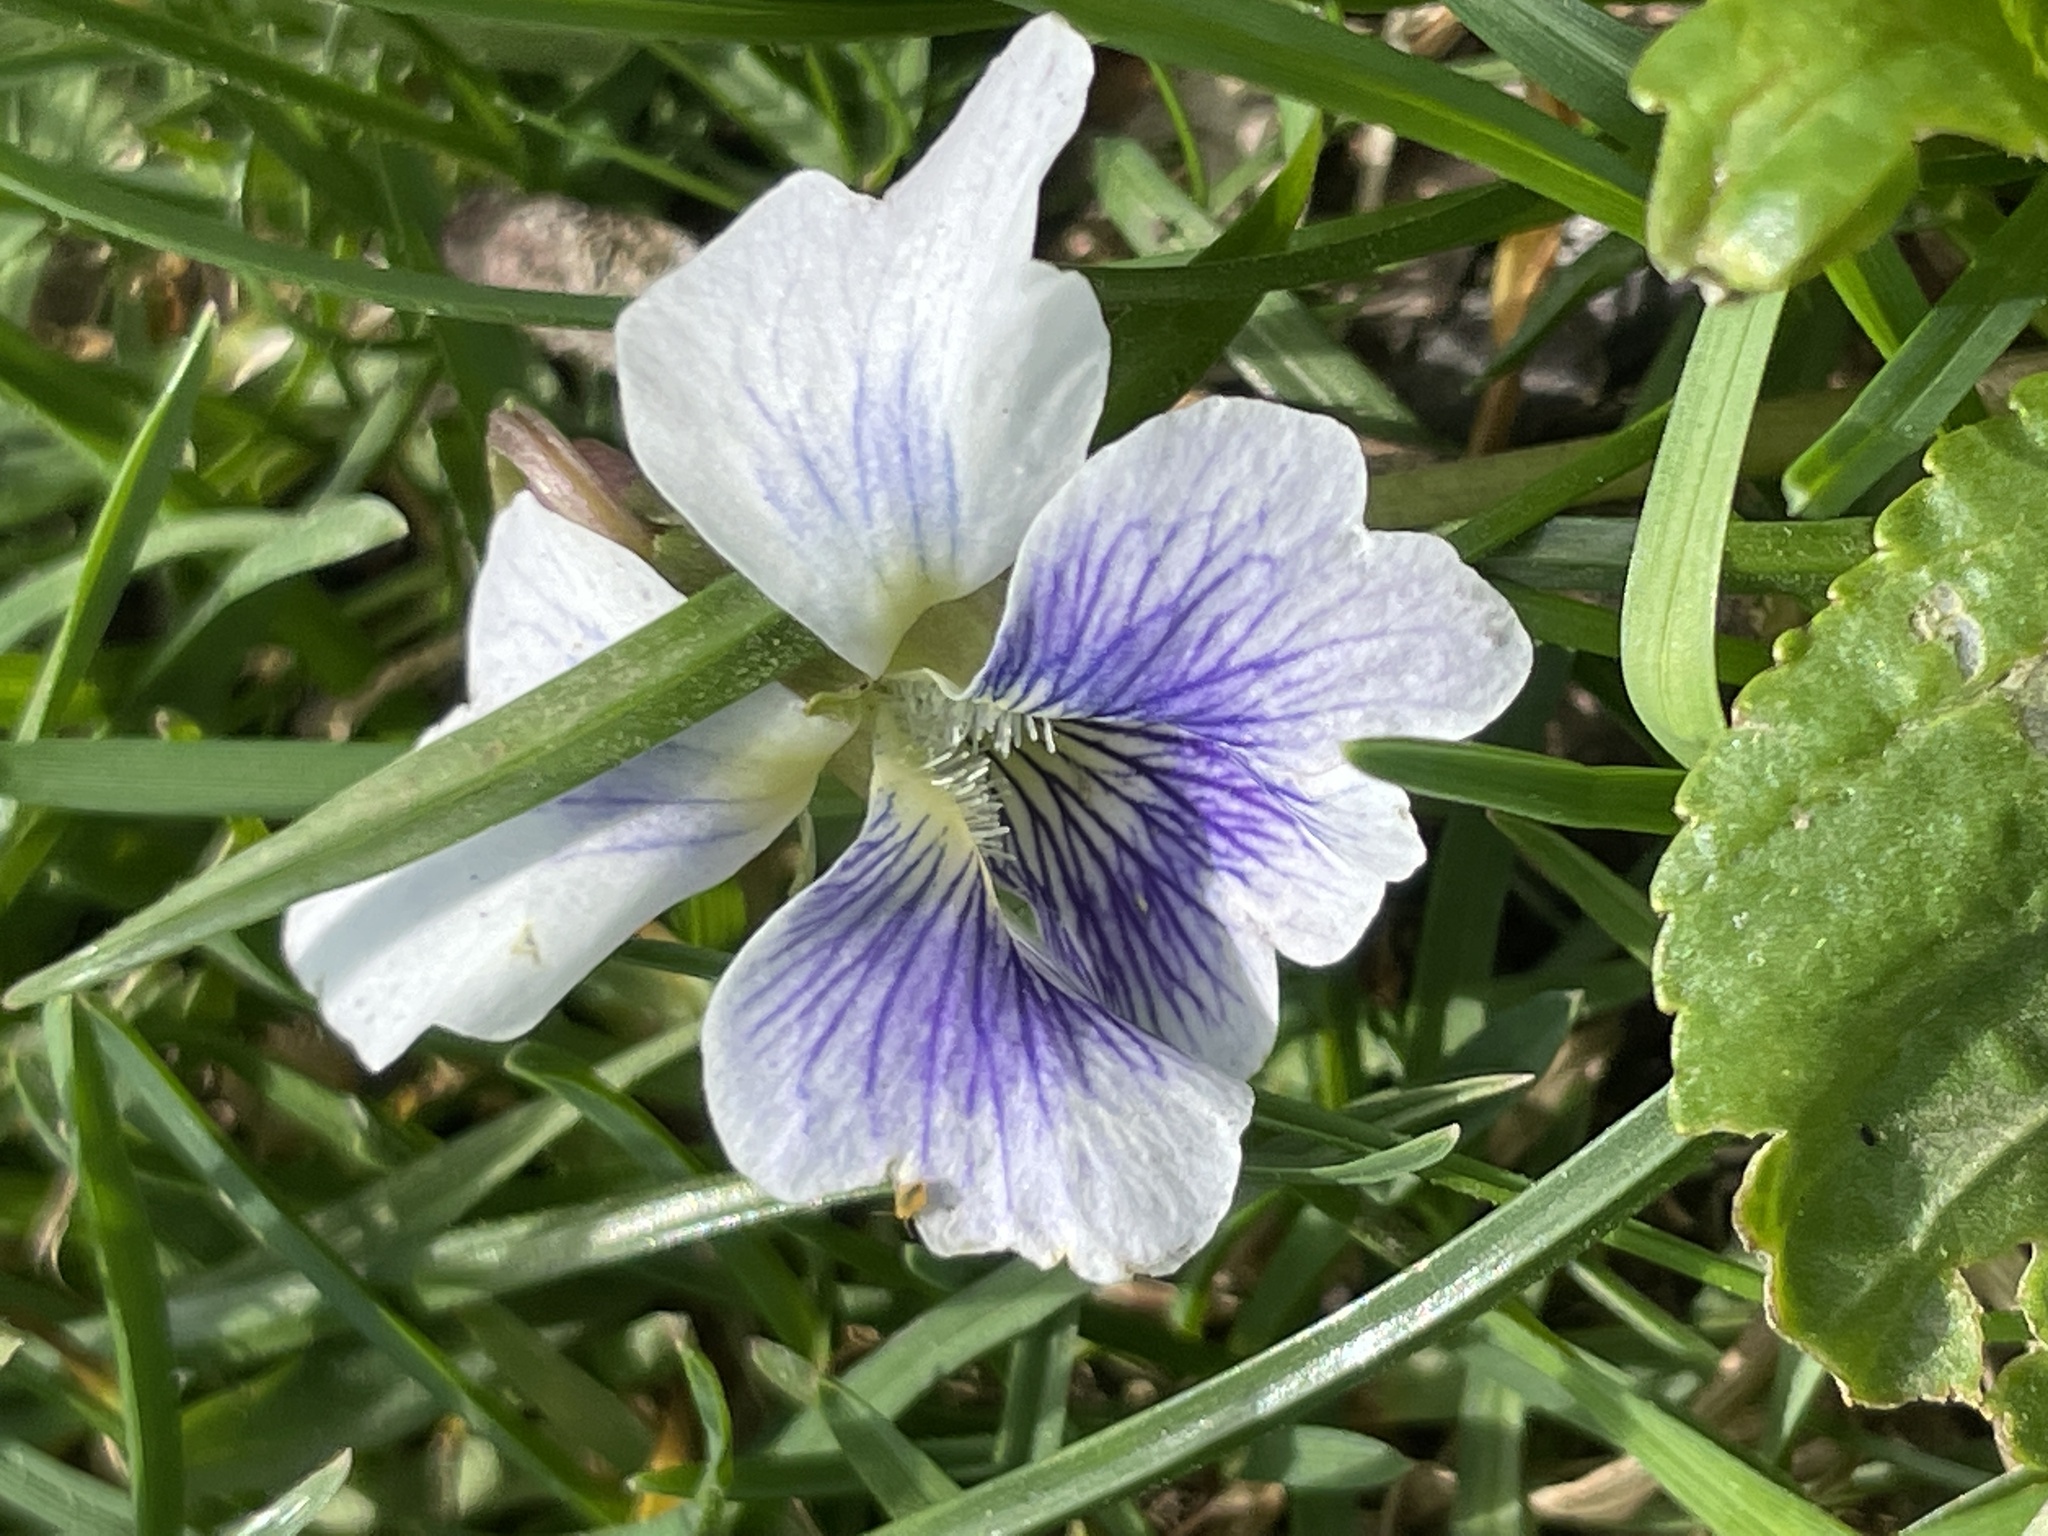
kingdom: Plantae
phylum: Tracheophyta
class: Magnoliopsida
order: Malpighiales
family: Violaceae
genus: Viola
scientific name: Viola sororia
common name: Dooryard violet
